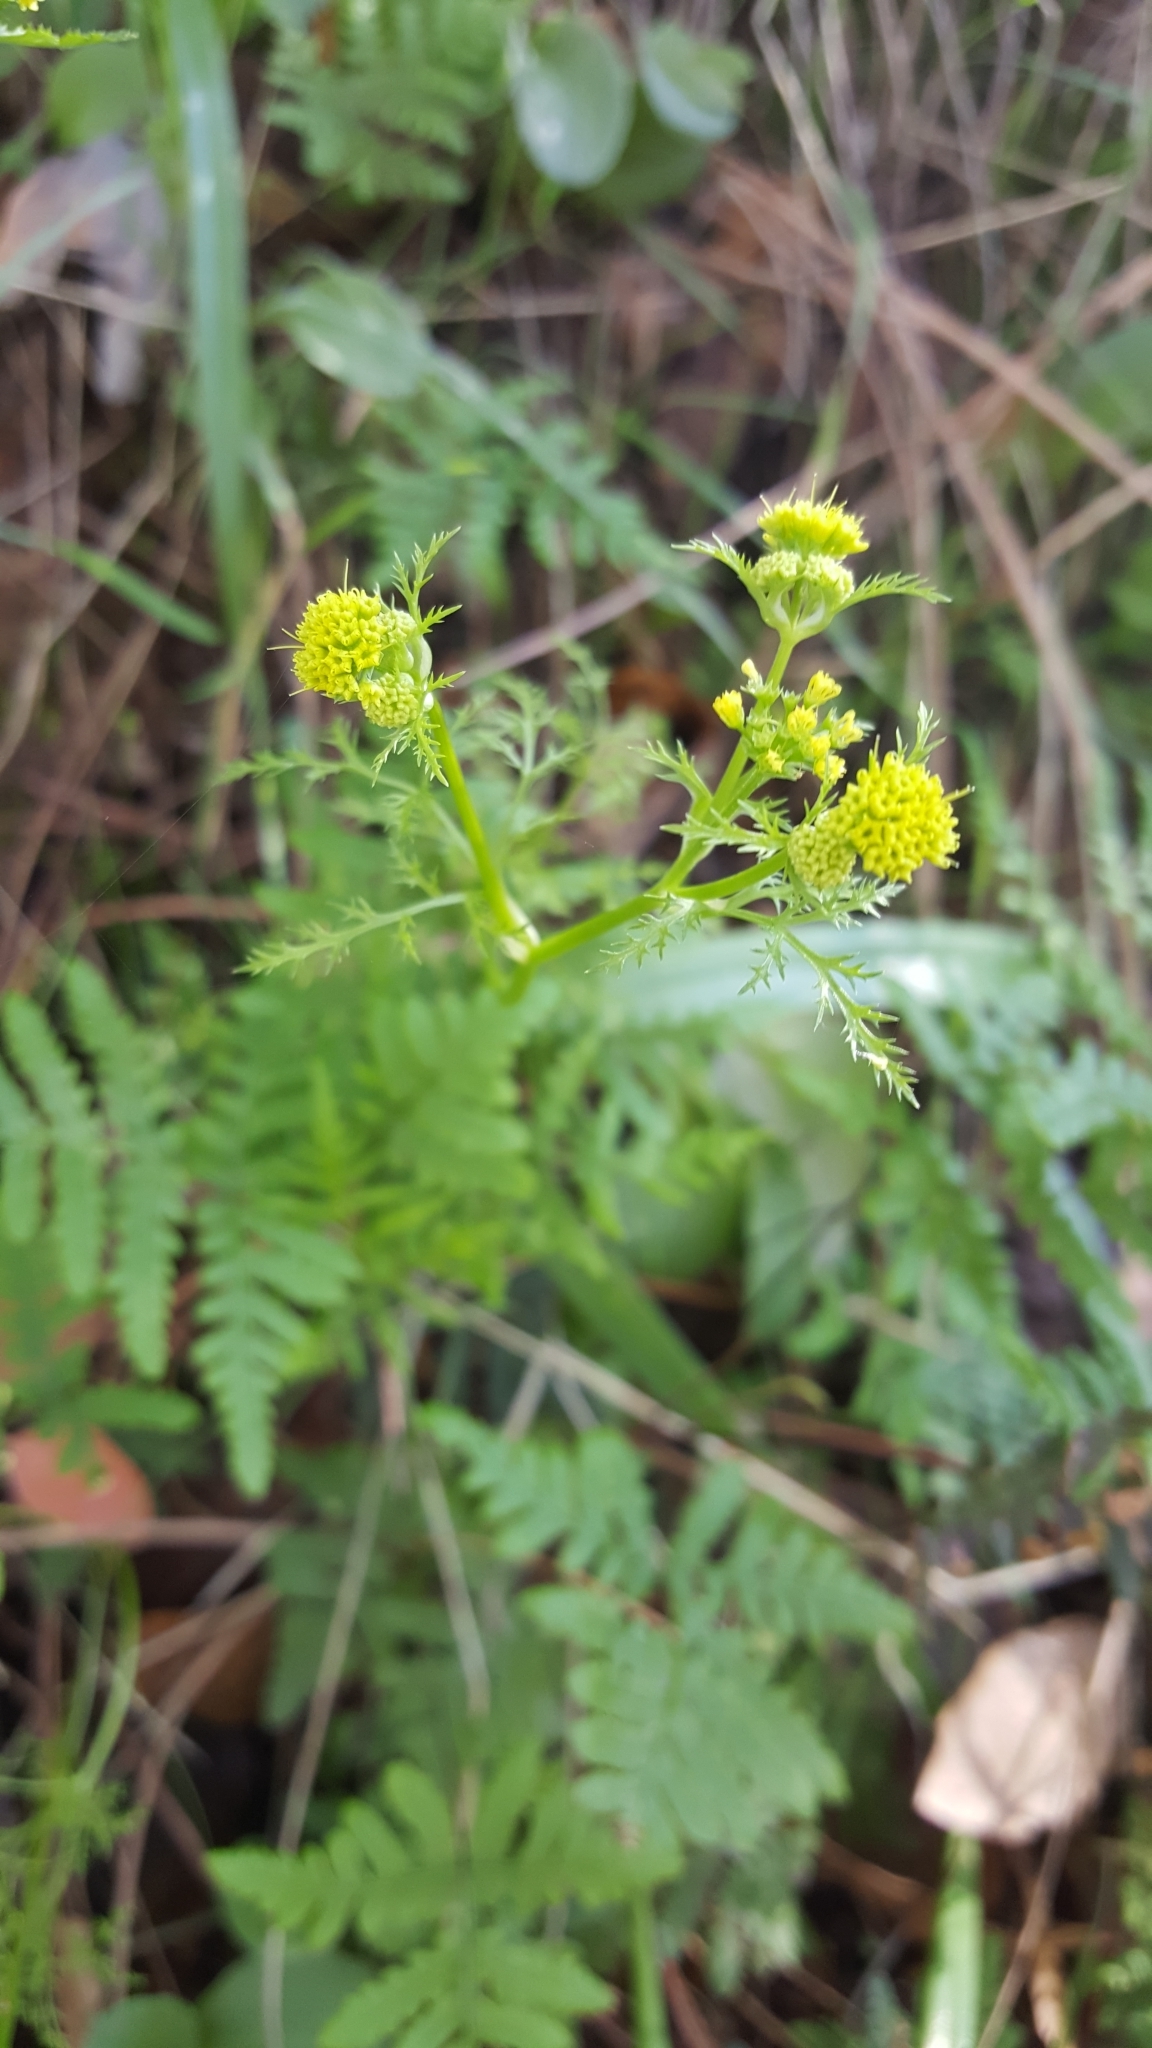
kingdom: Plantae
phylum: Tracheophyta
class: Magnoliopsida
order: Apiales
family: Apiaceae
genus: Sanicula
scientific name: Sanicula tuberosa
